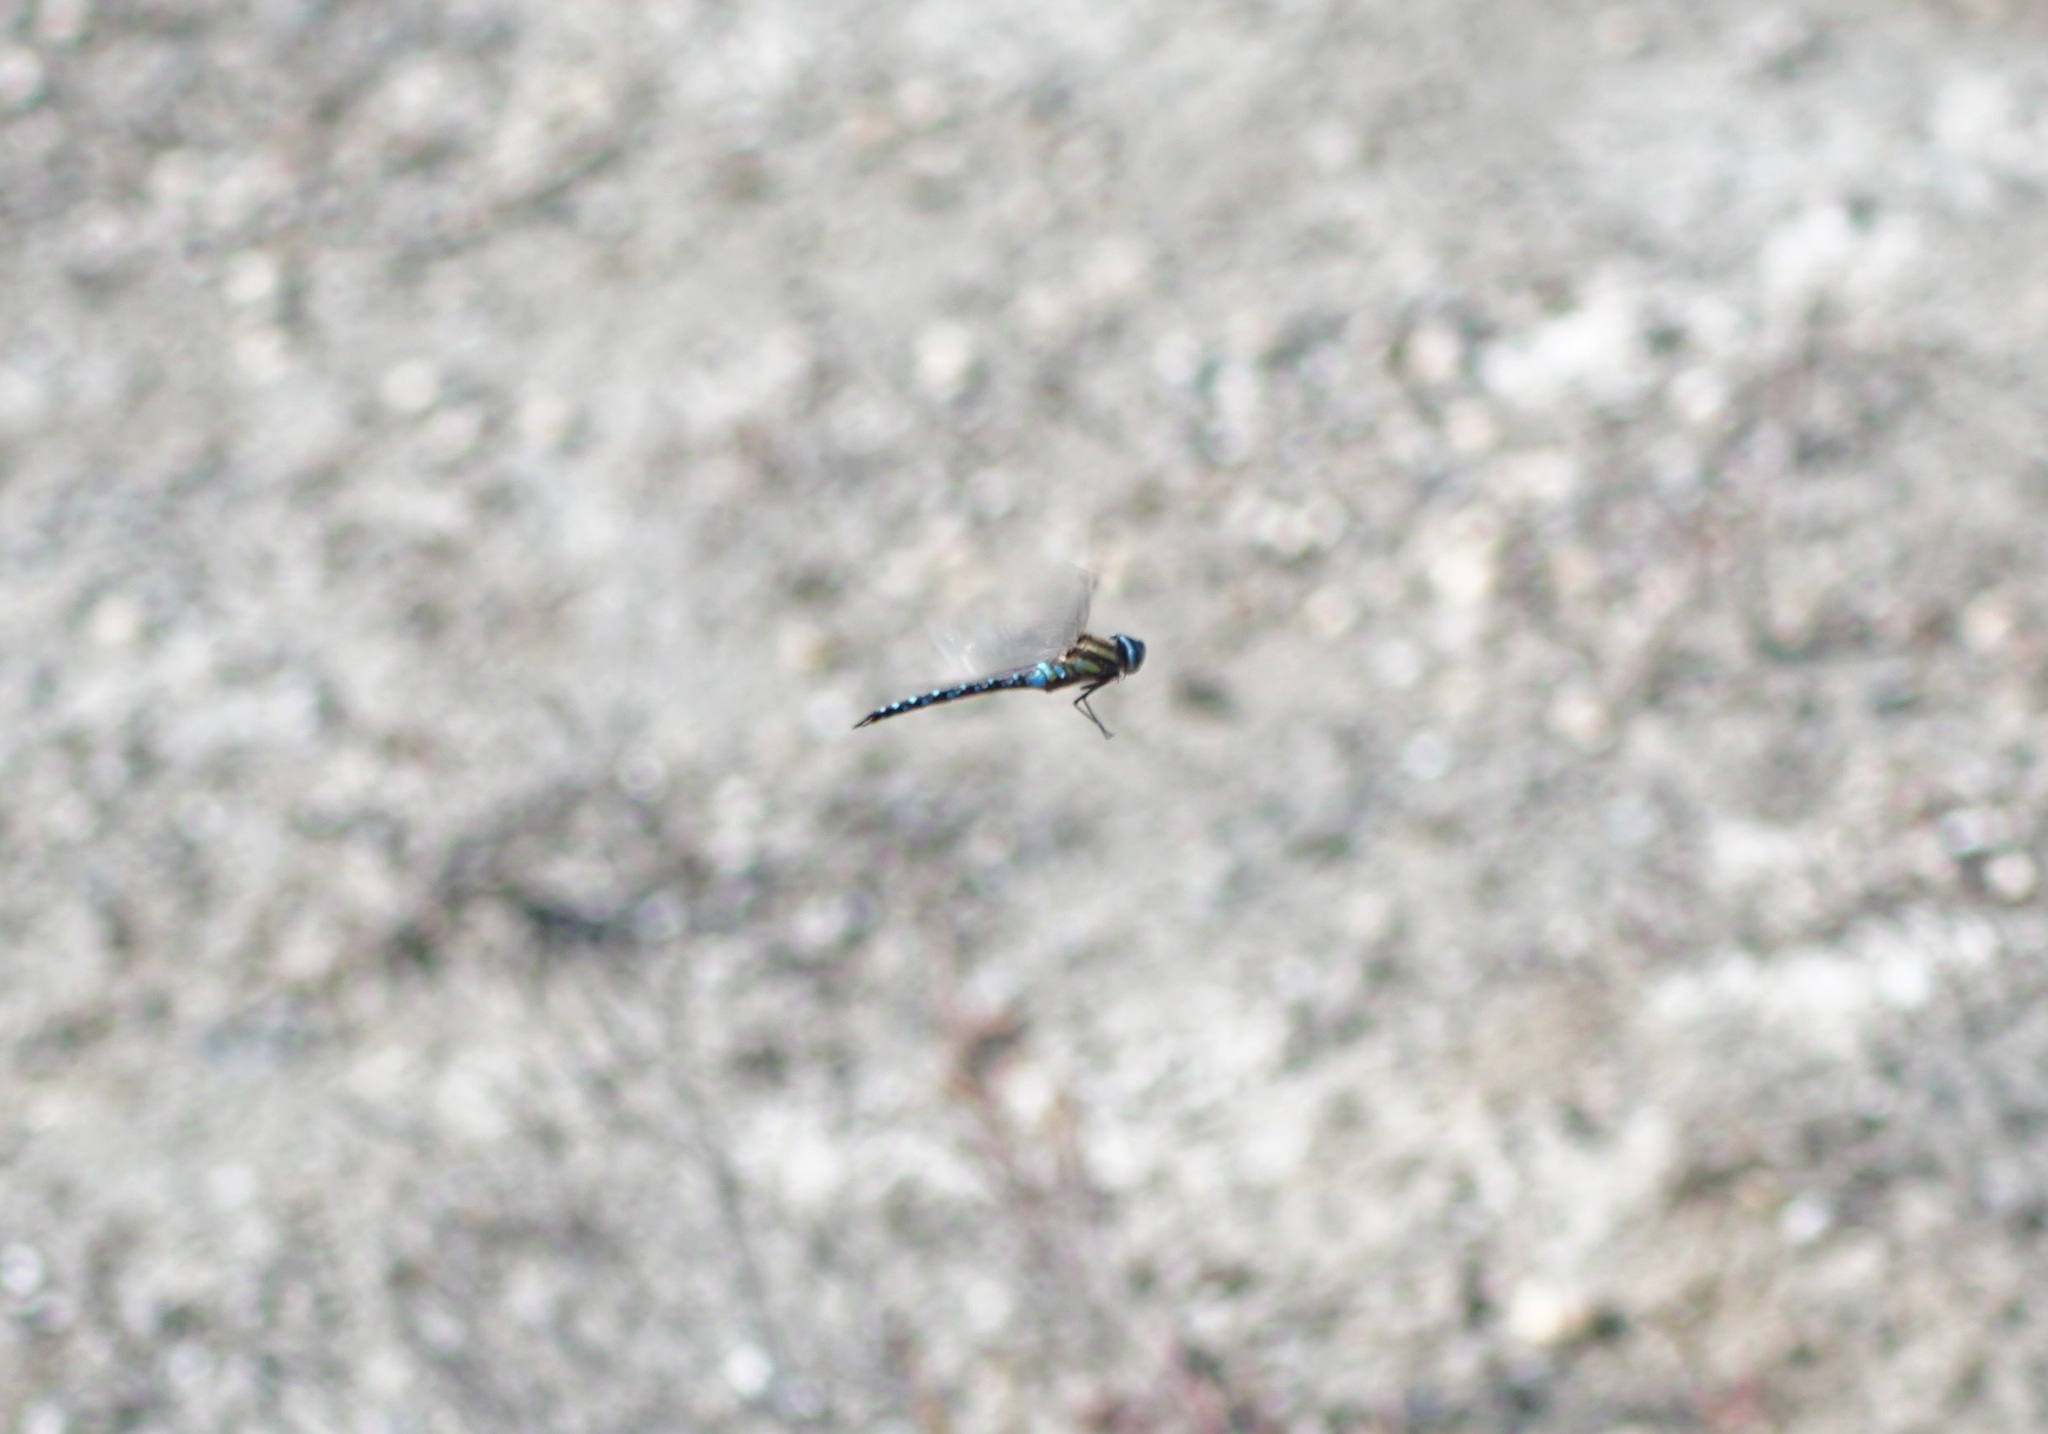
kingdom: Animalia
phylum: Arthropoda
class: Insecta
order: Odonata
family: Aeshnidae
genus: Aeshna
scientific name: Aeshna mixta
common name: Migrant hawker
